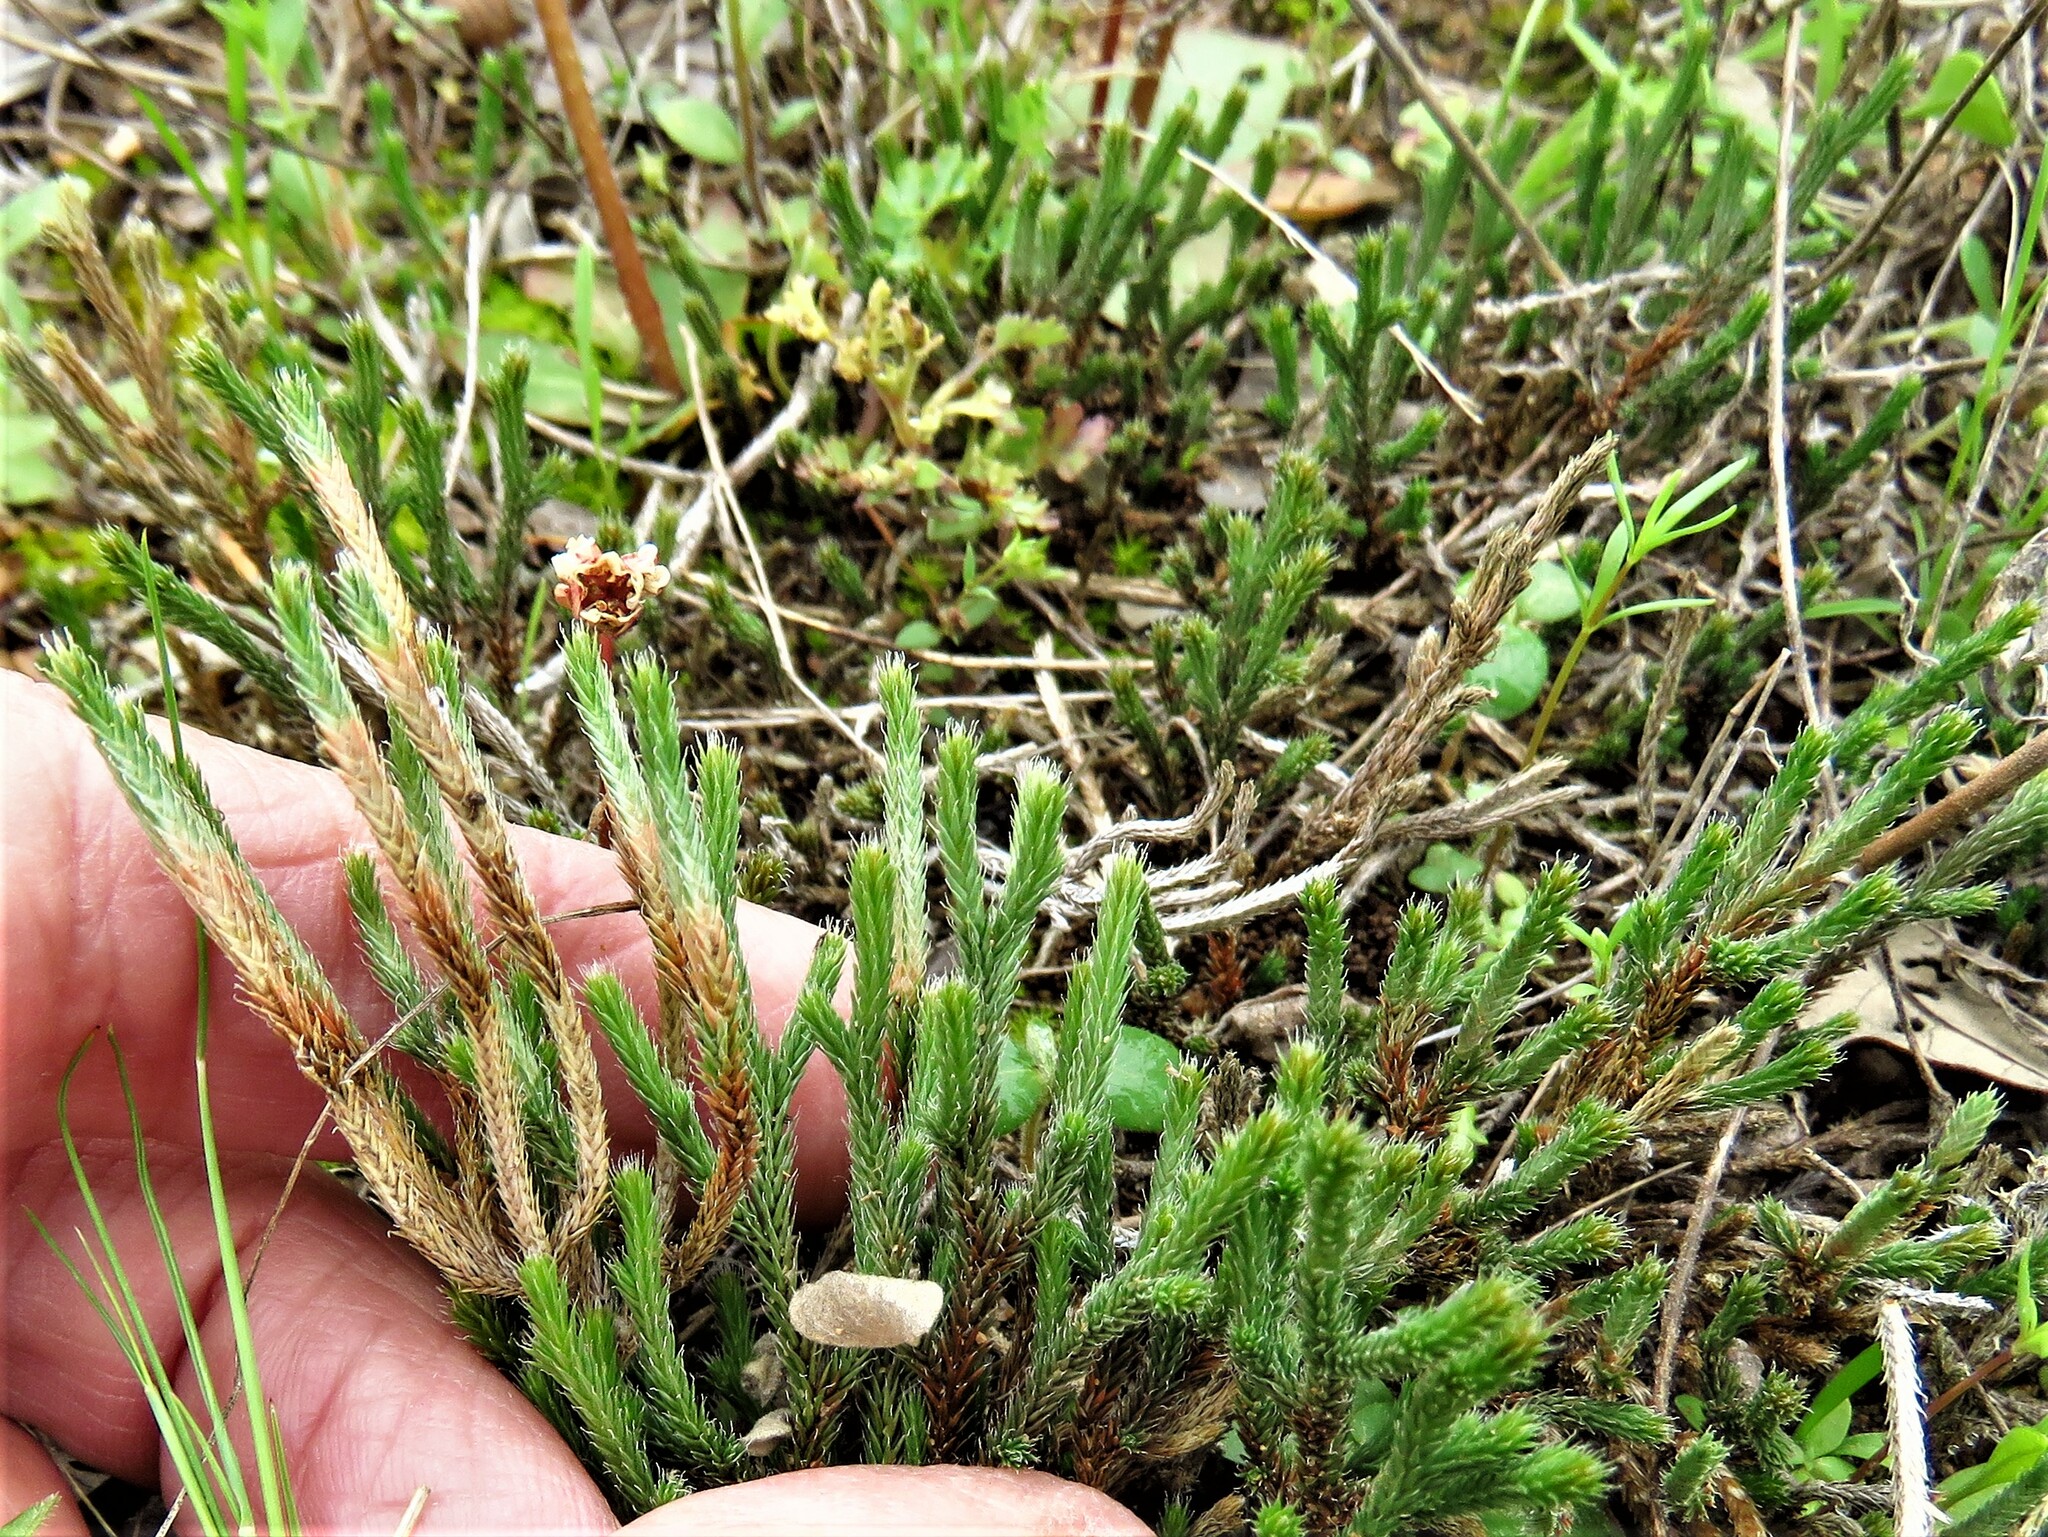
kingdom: Plantae
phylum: Tracheophyta
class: Lycopodiopsida
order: Selaginellales
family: Selaginellaceae
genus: Selaginella
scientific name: Selaginella corallina
